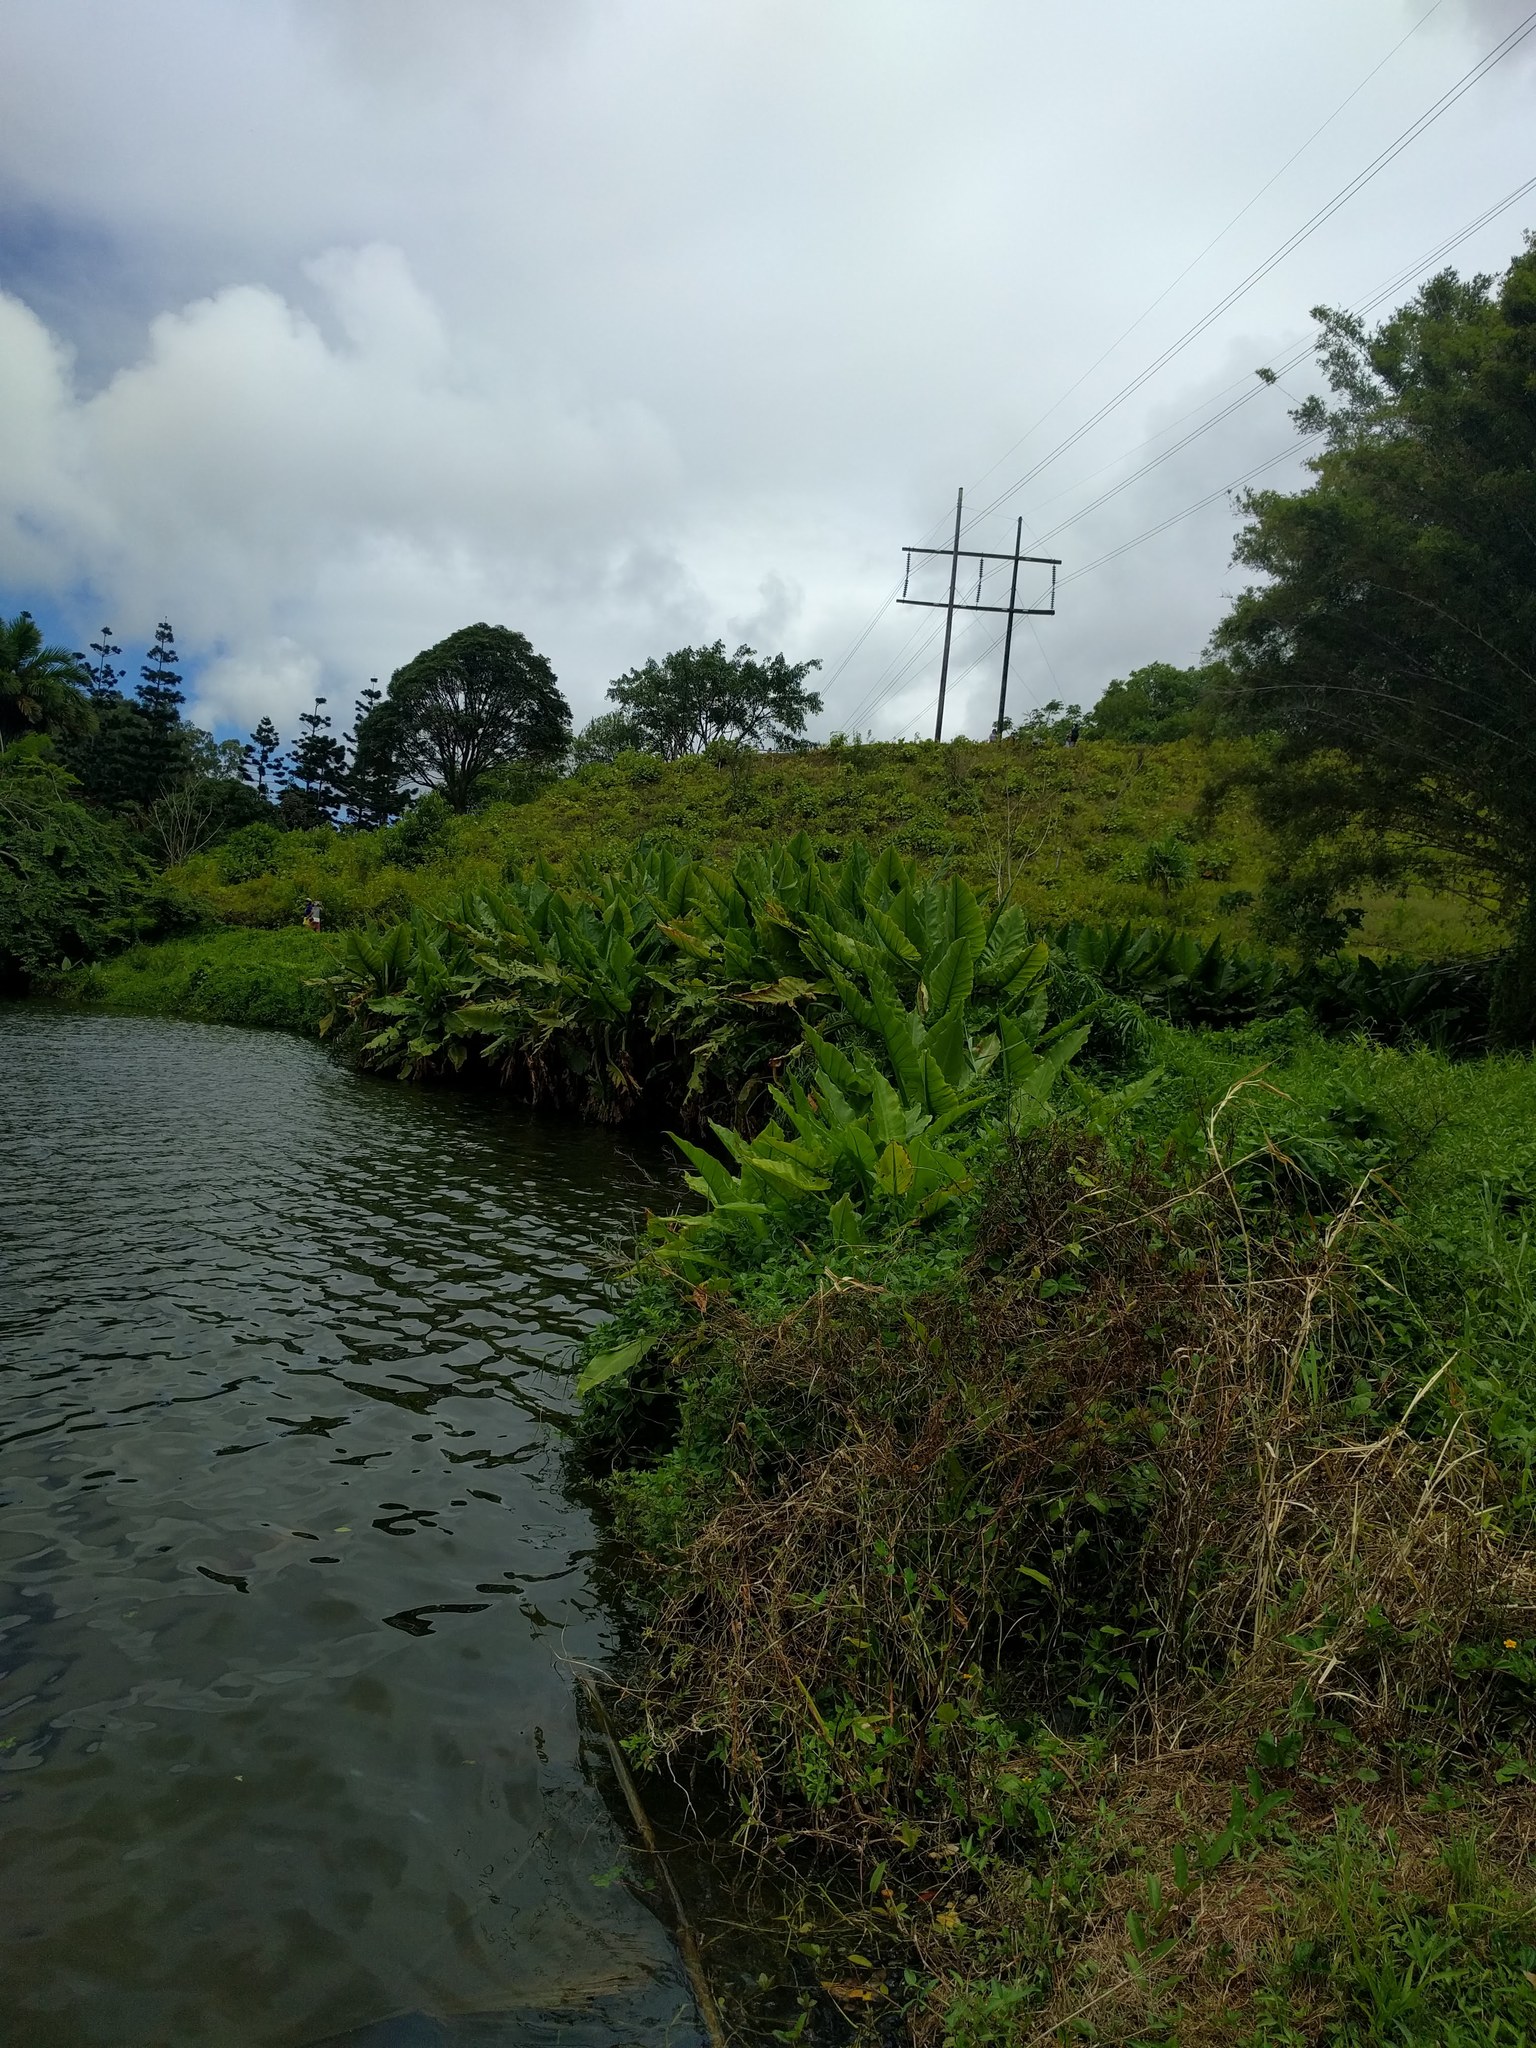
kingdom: Plantae
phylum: Tracheophyta
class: Liliopsida
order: Alismatales
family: Araceae
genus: Typhonodorum
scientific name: Typhonodorum lindleyanum
